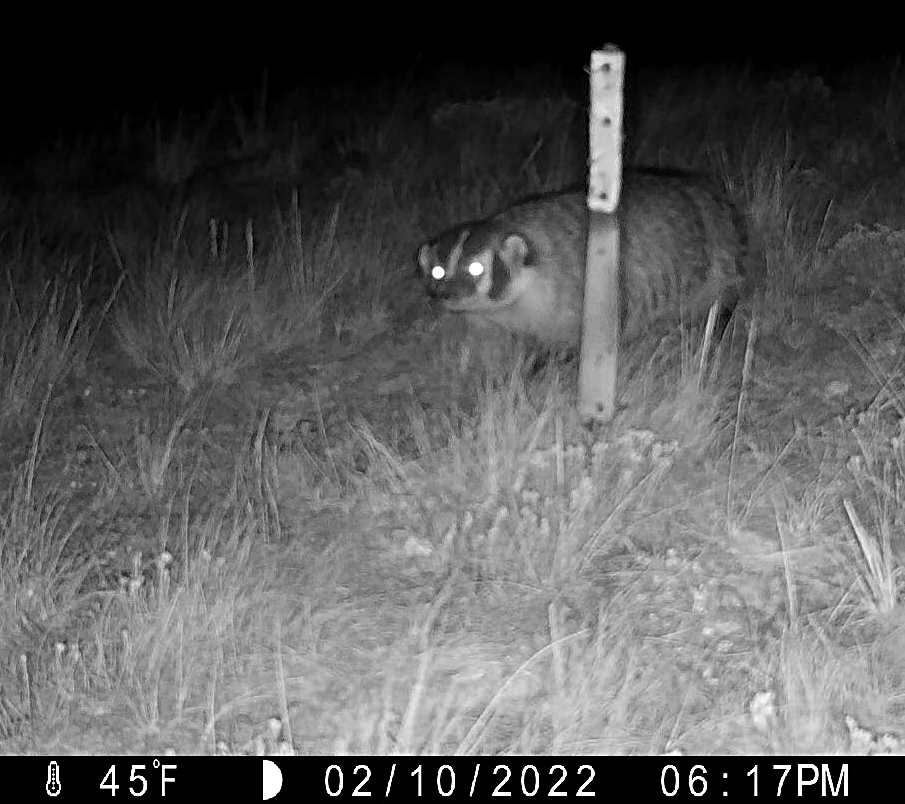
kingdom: Animalia
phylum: Chordata
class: Mammalia
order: Carnivora
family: Mustelidae
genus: Taxidea
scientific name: Taxidea taxus
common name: American badger
